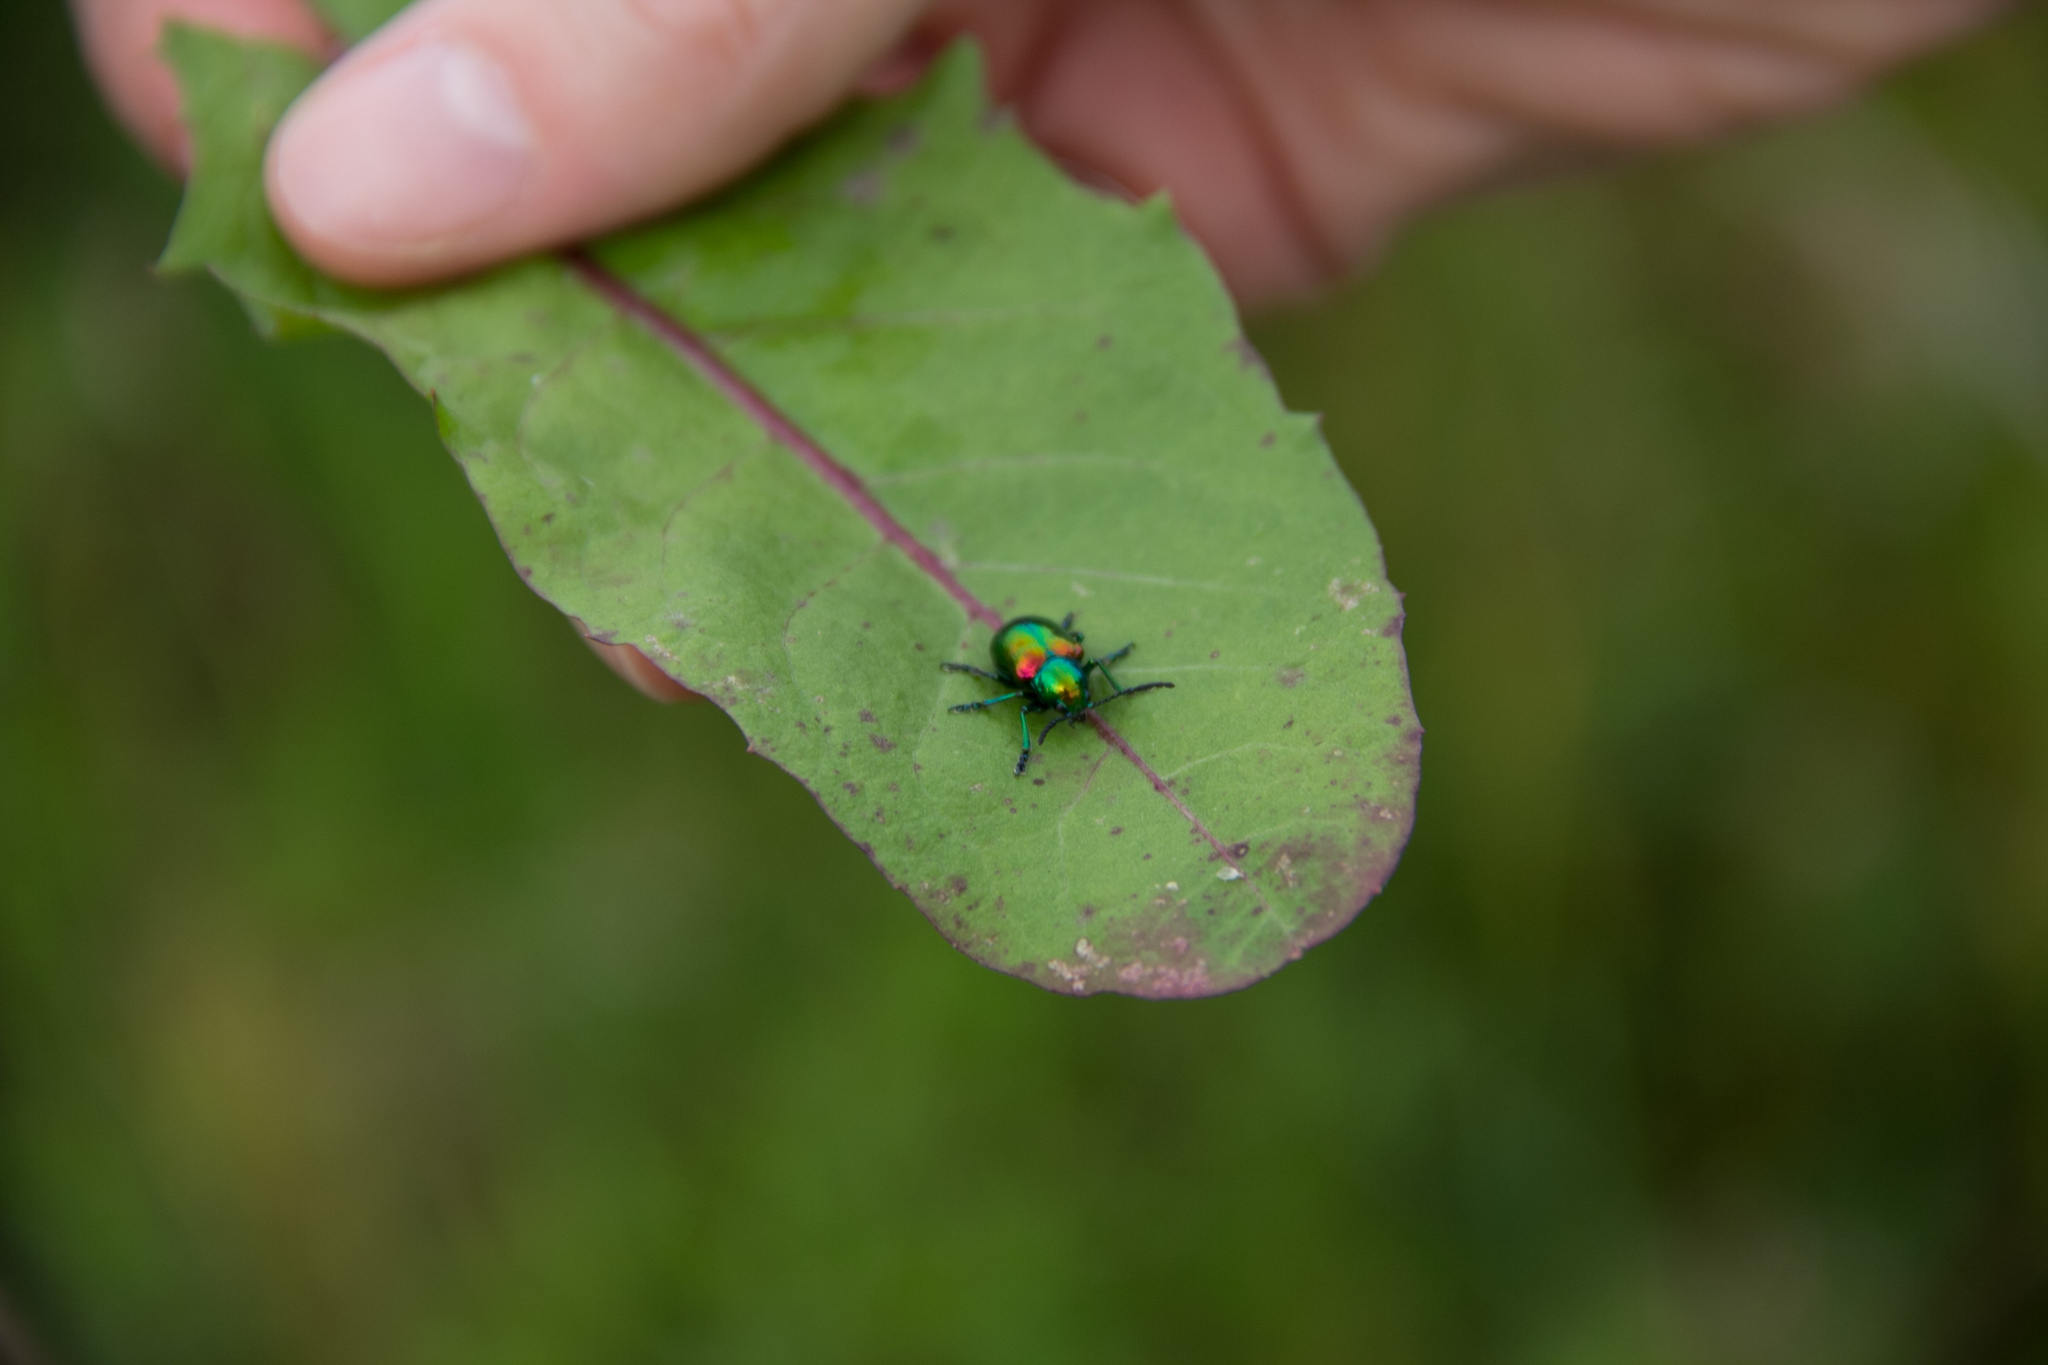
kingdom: Animalia
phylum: Arthropoda
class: Insecta
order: Coleoptera
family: Chrysomelidae
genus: Chrysochus
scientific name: Chrysochus auratus
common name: Dogbane leaf beetle
